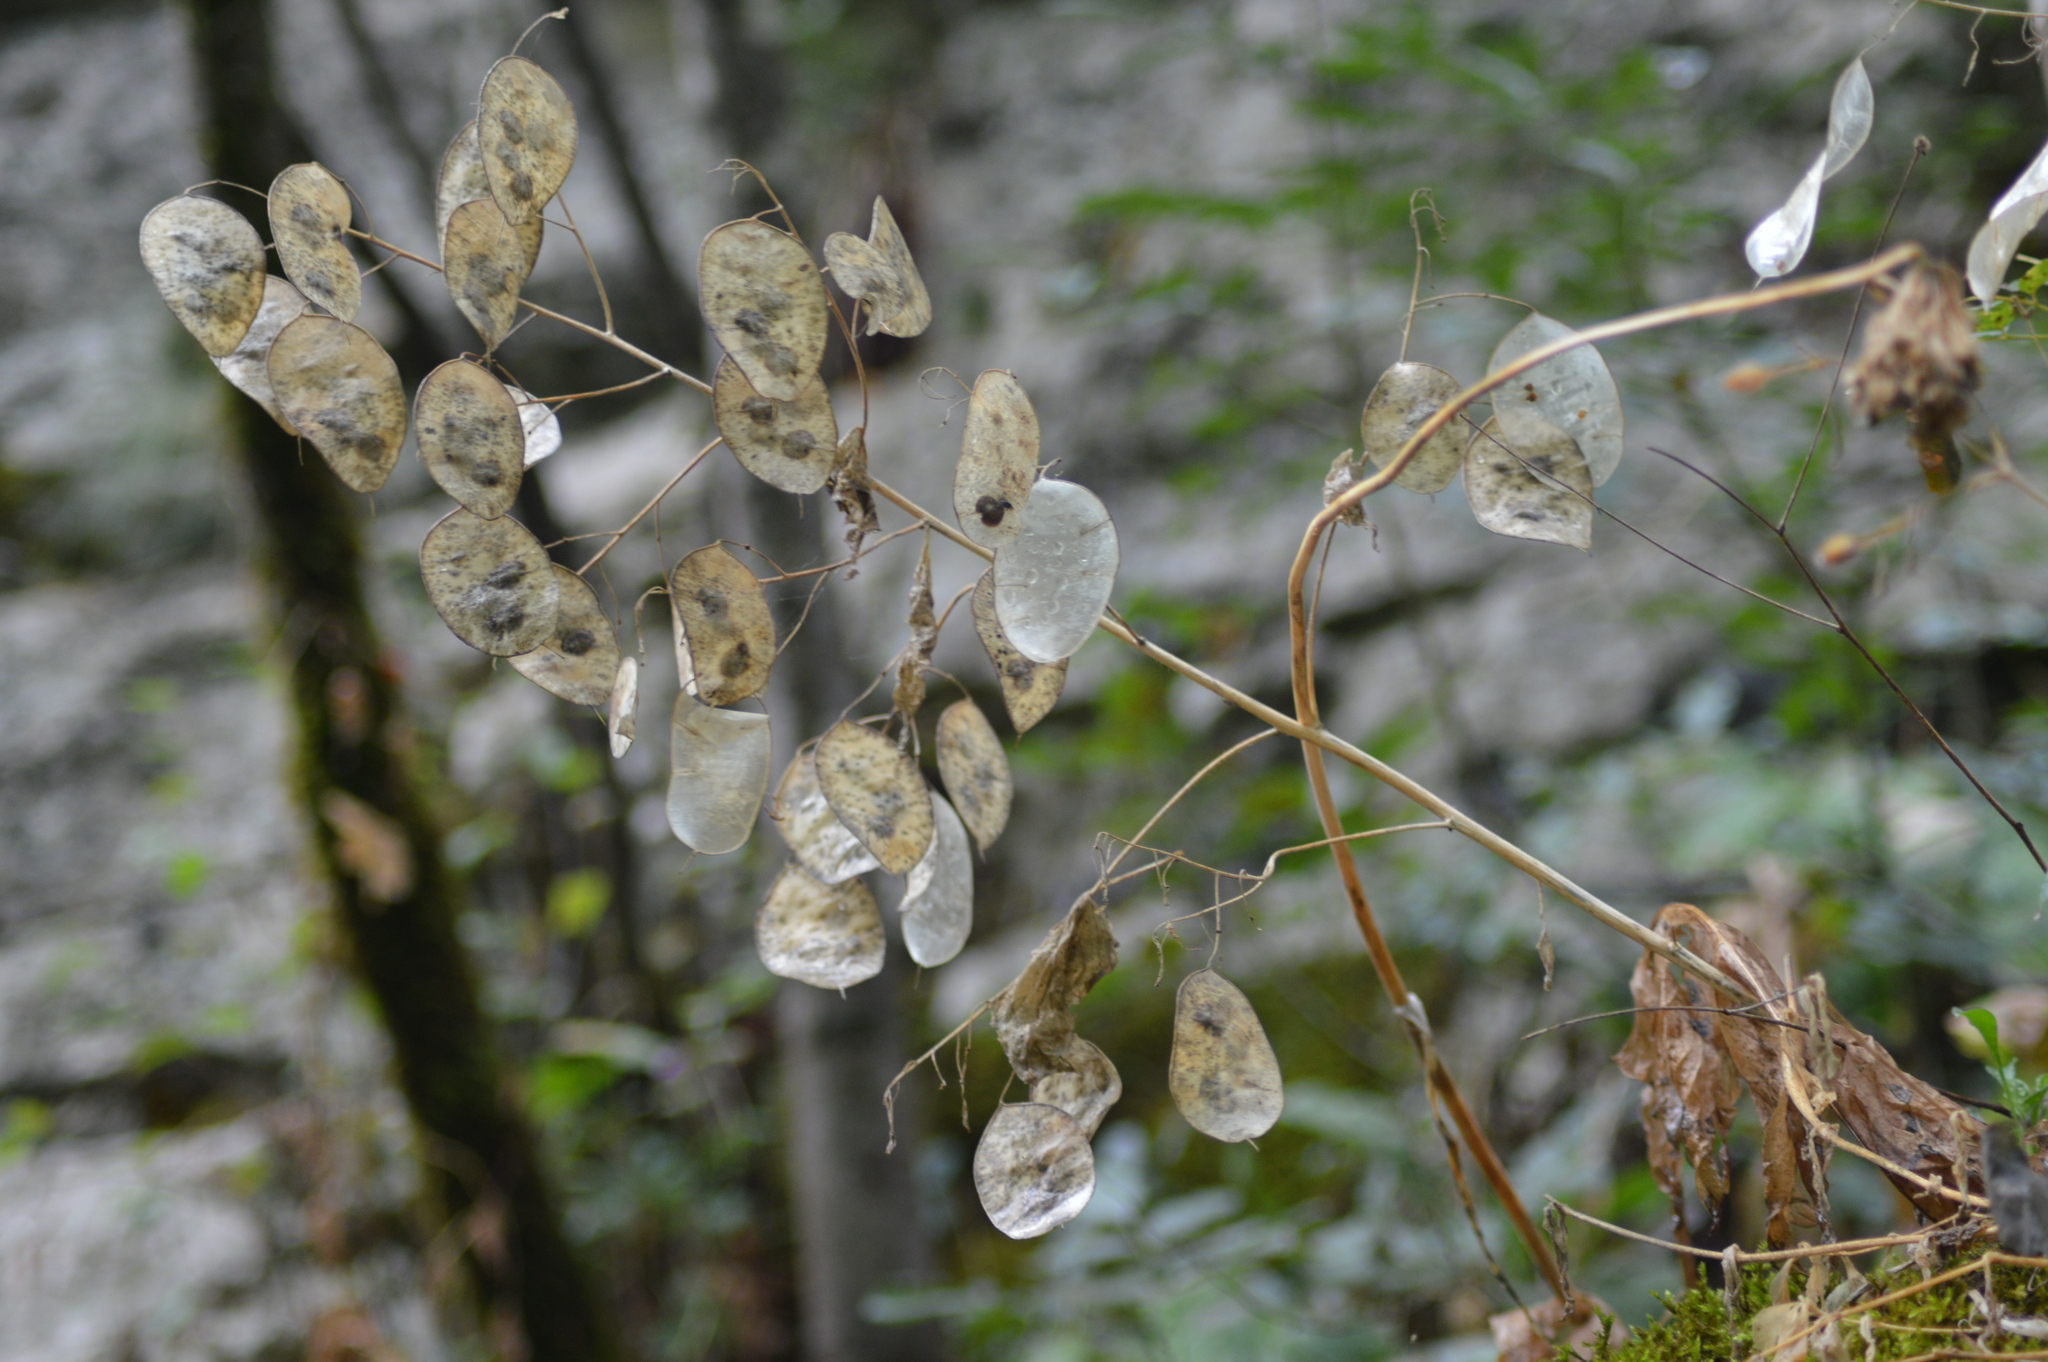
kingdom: Plantae
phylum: Tracheophyta
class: Magnoliopsida
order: Brassicales
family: Brassicaceae
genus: Lunaria
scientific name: Lunaria annua
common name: Honesty
